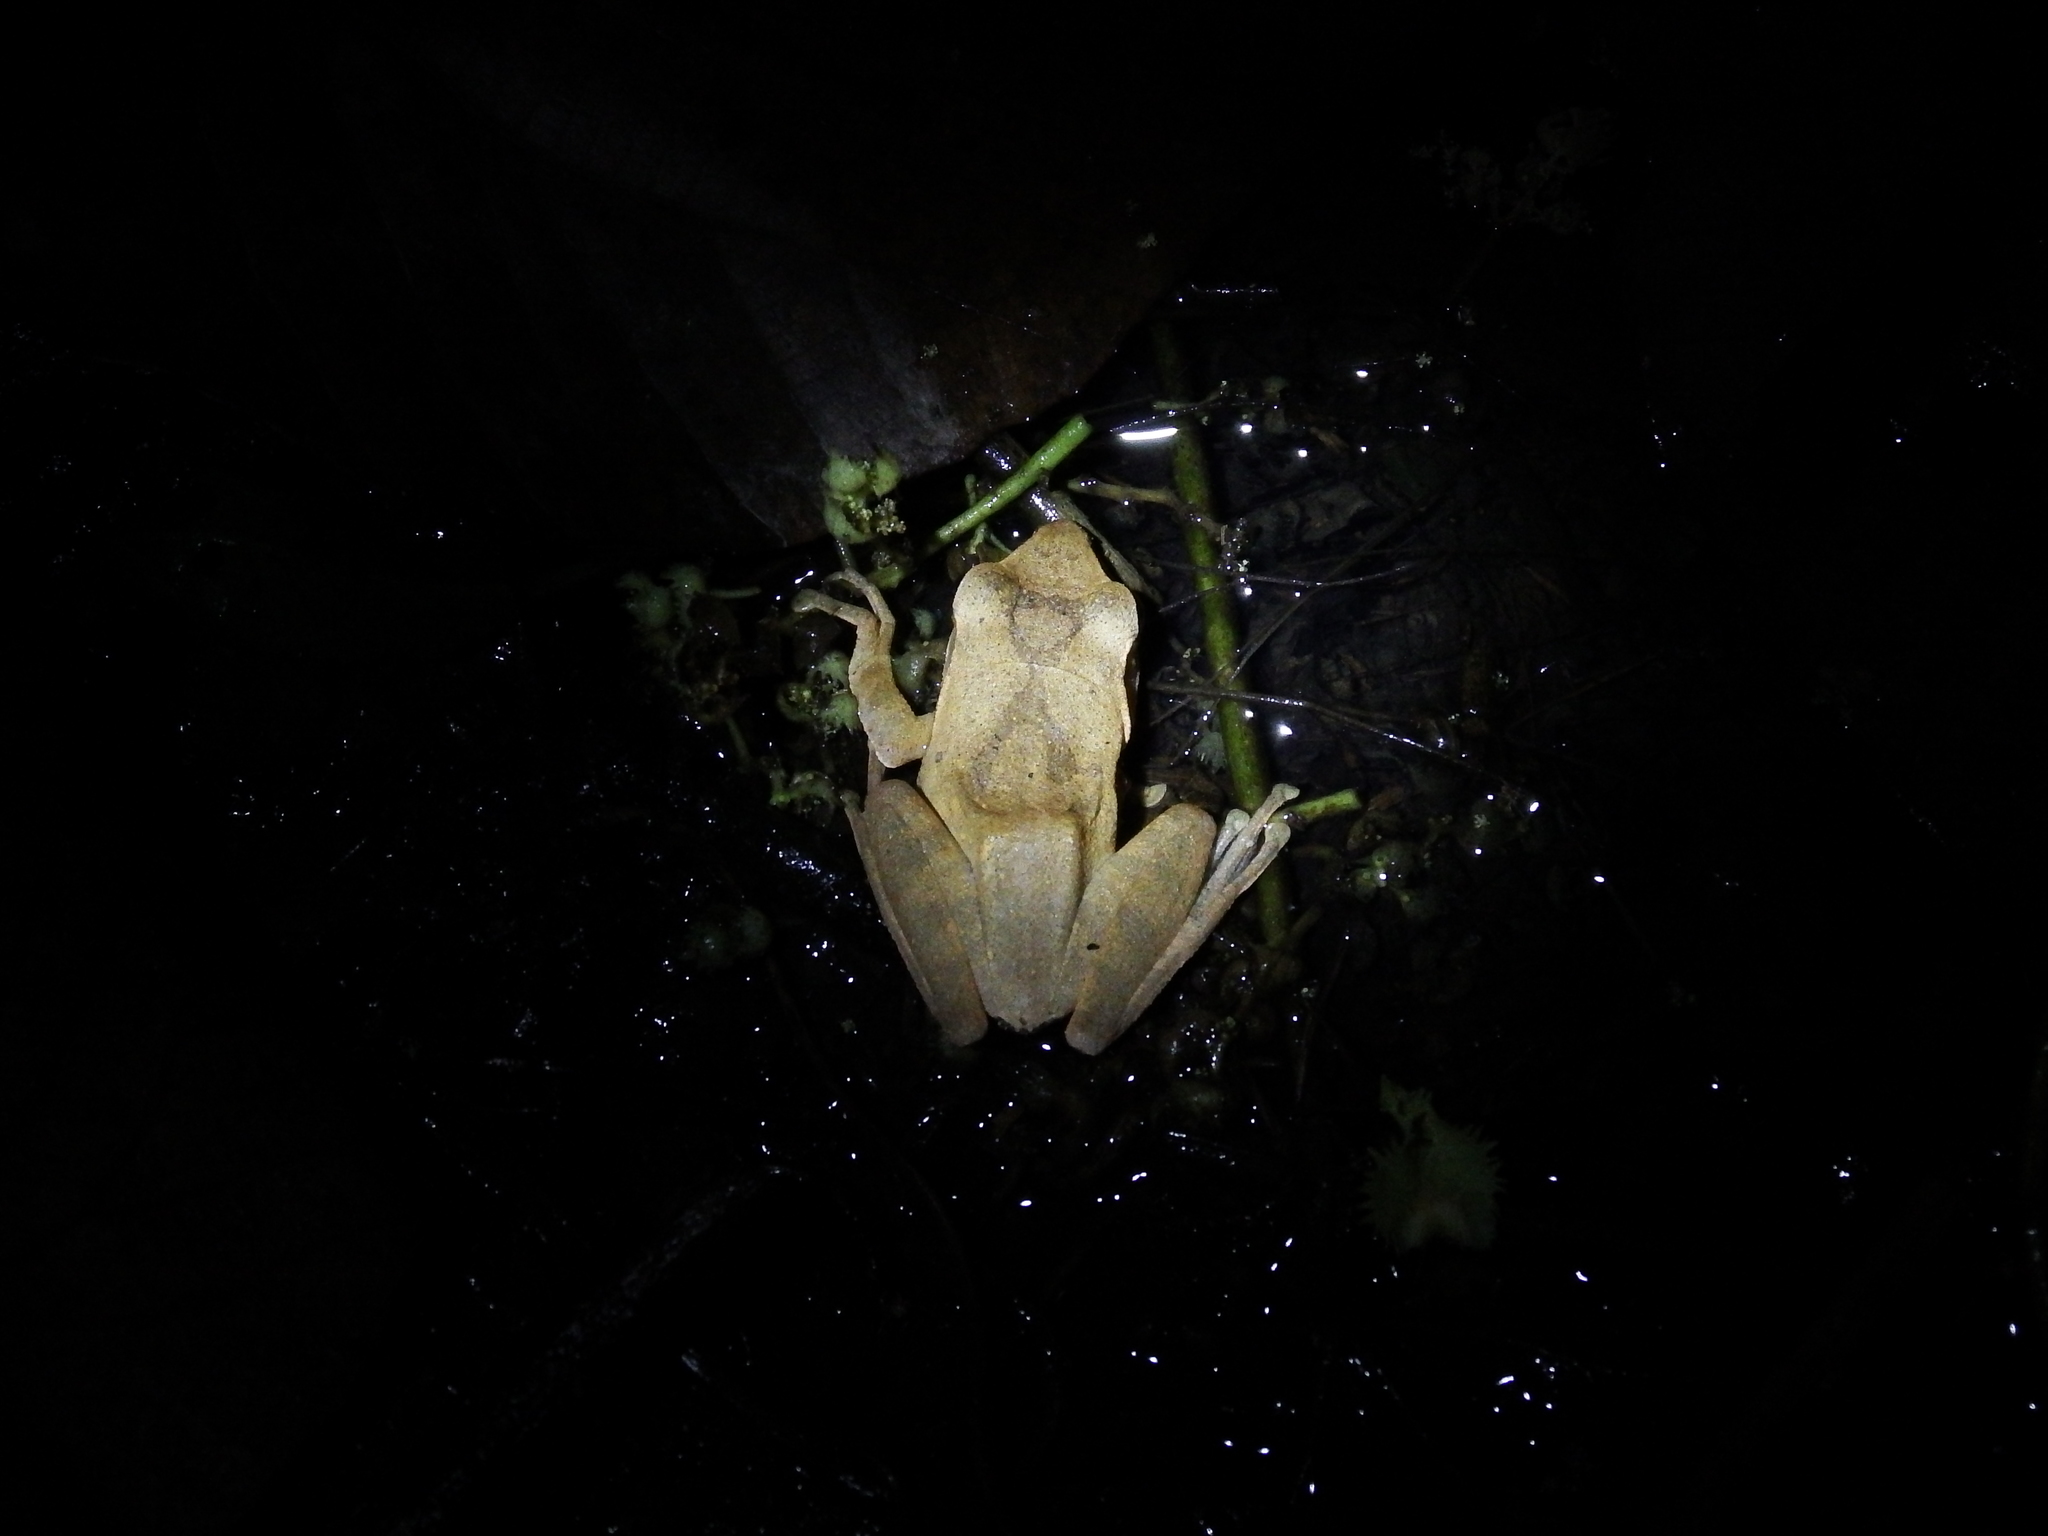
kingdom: Animalia
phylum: Chordata
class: Amphibia
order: Anura
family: Rhacophoridae
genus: Polypedates
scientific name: Polypedates megacephalus
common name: Hong kong whipping frog
